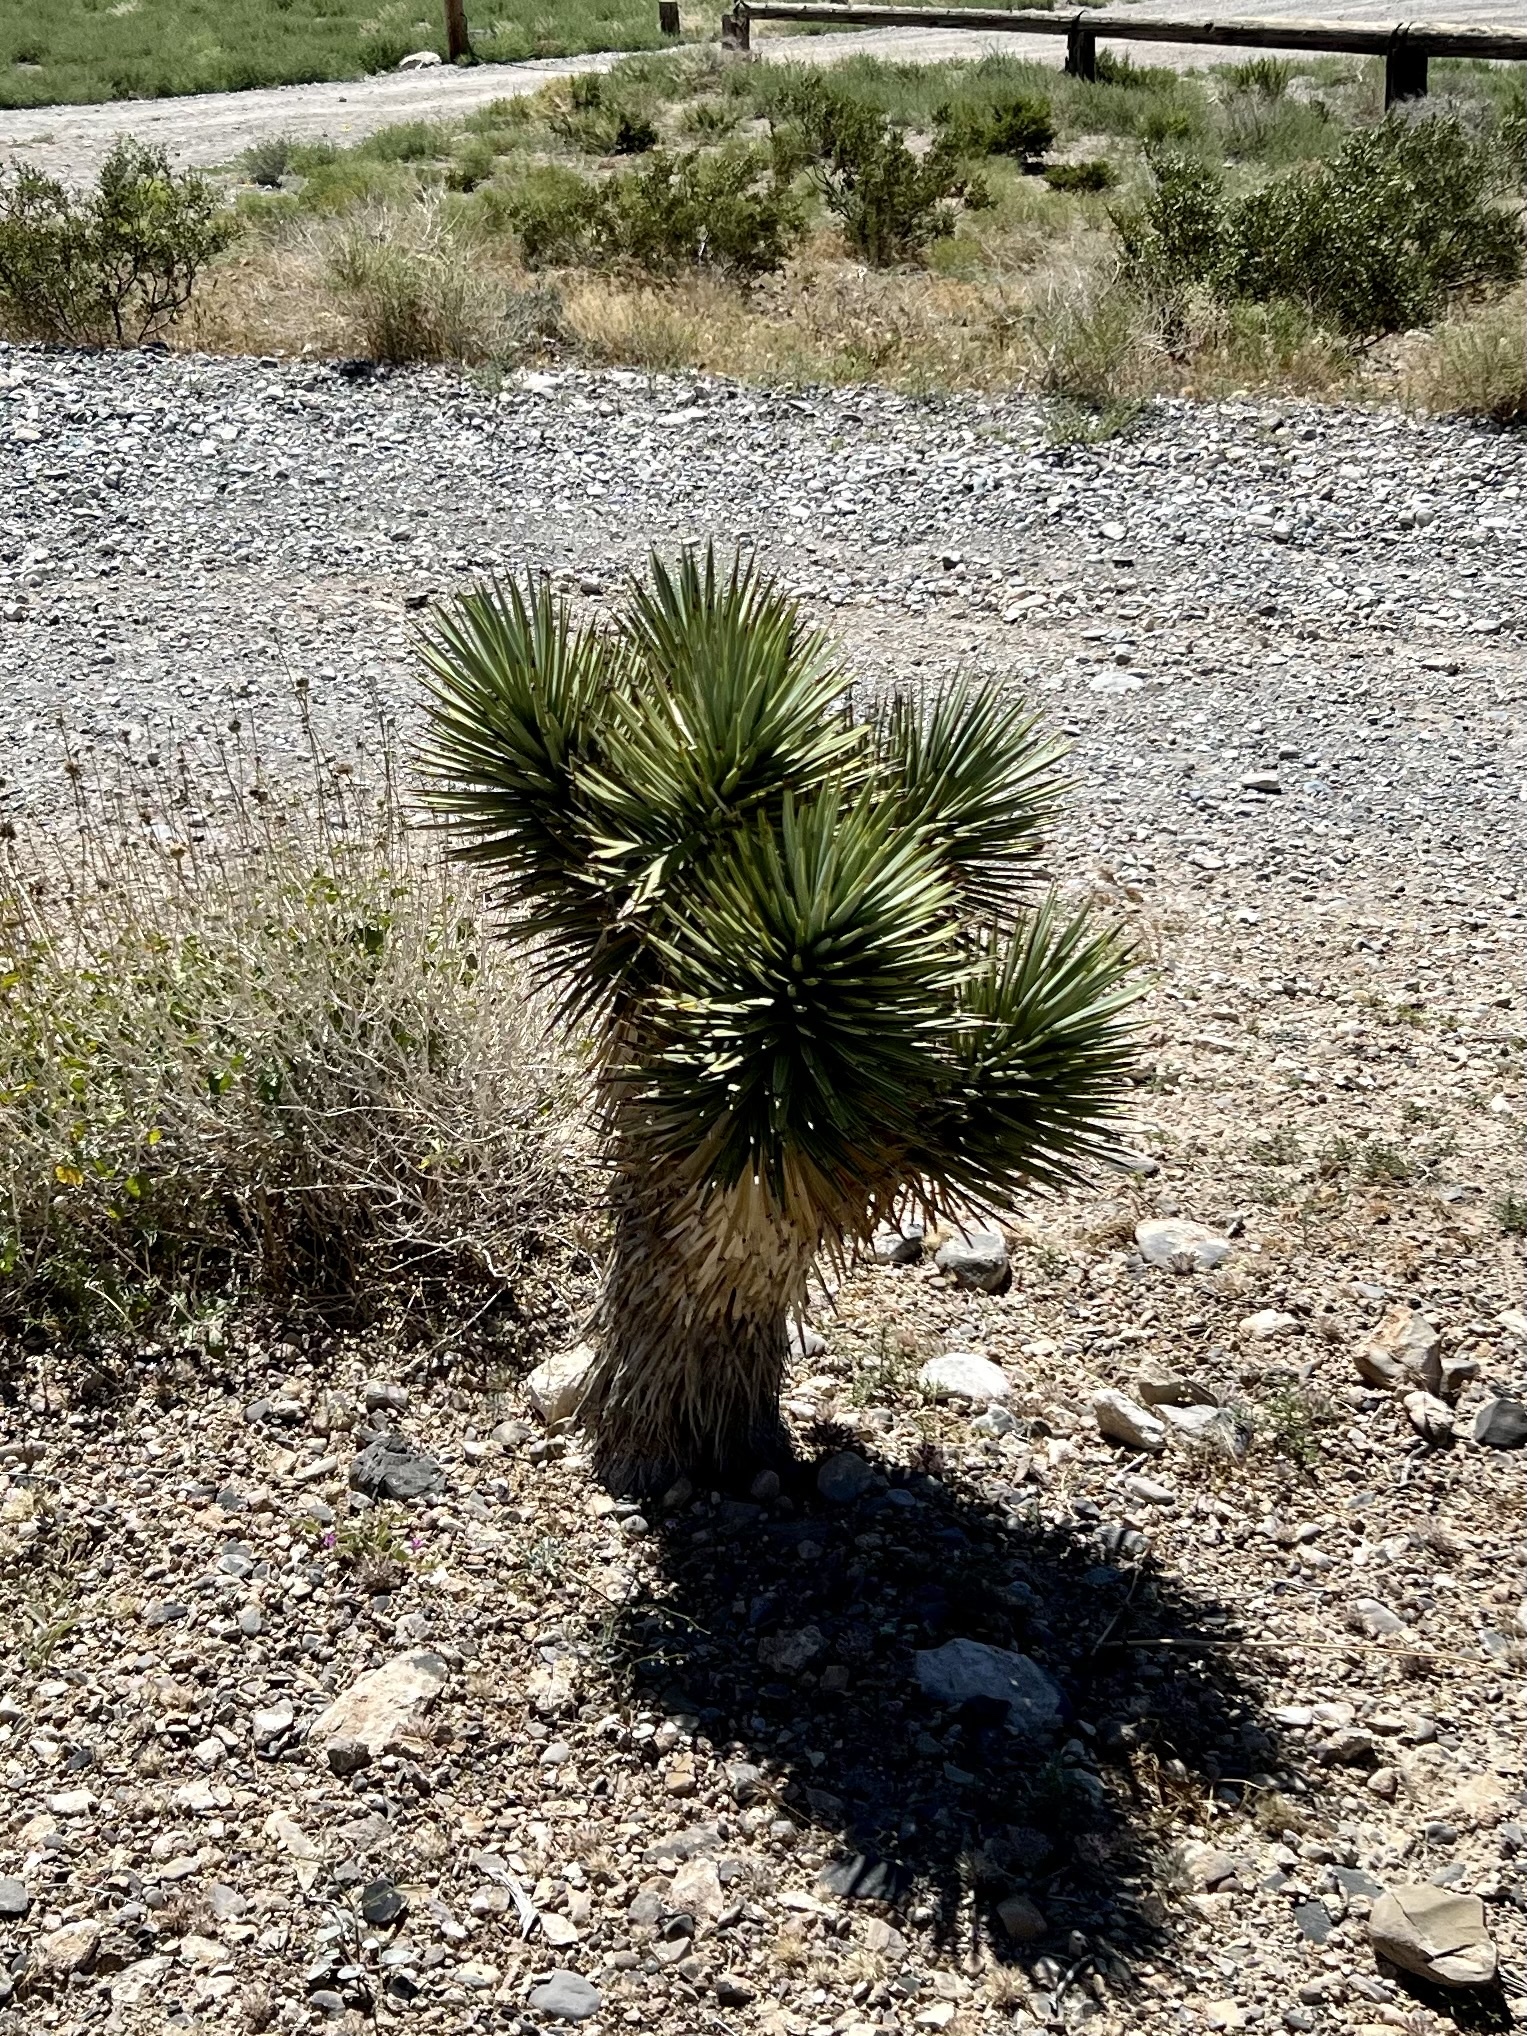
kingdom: Plantae
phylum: Tracheophyta
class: Liliopsida
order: Asparagales
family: Asparagaceae
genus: Yucca
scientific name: Yucca brevifolia
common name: Joshua tree
